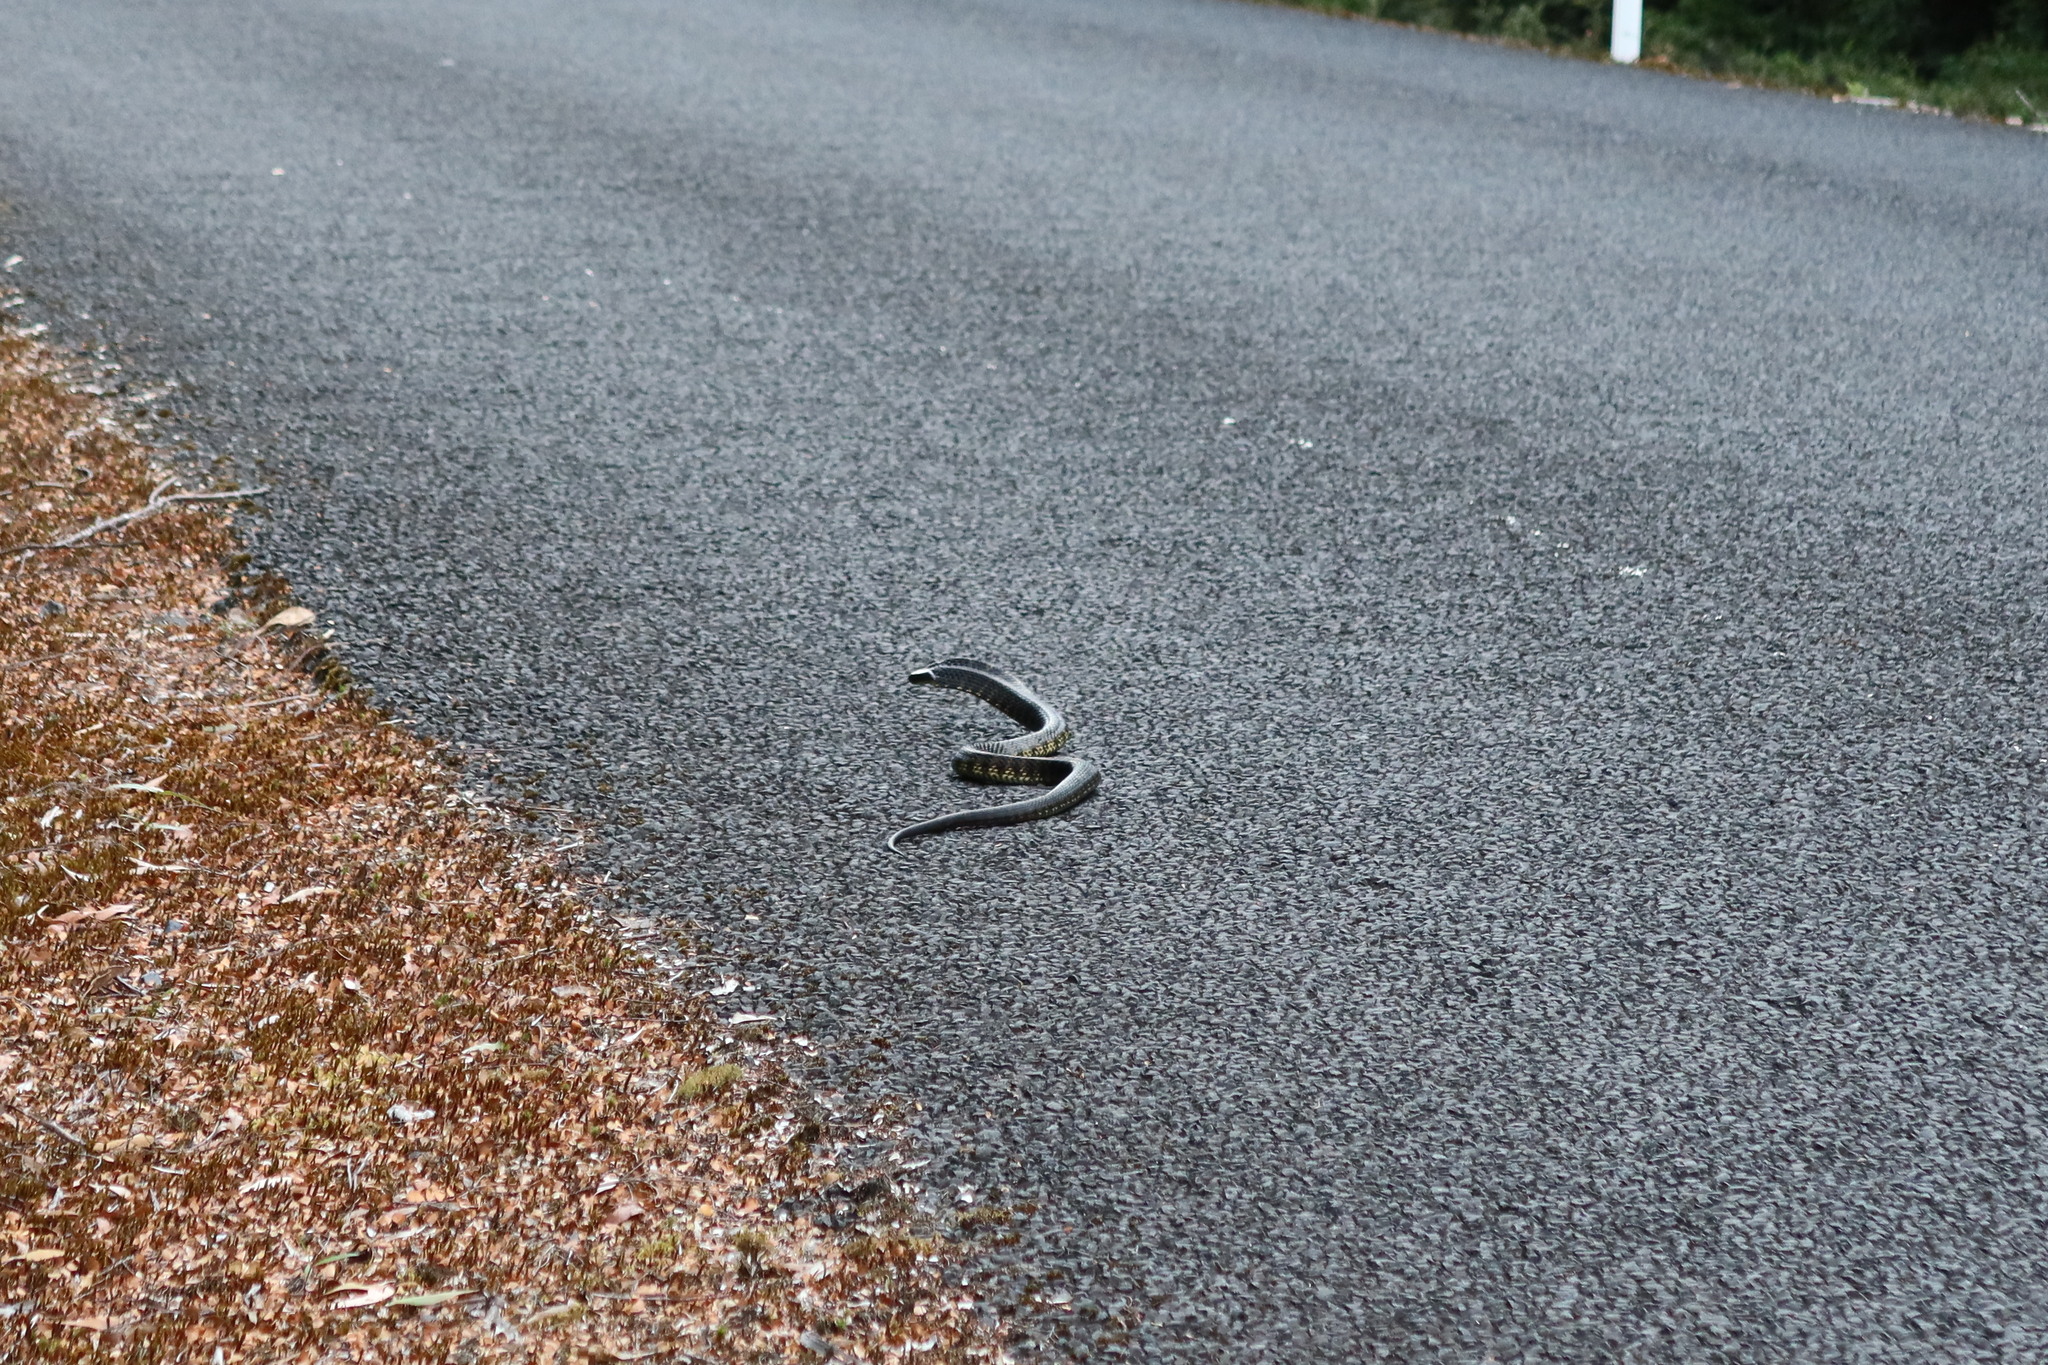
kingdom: Animalia
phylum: Chordata
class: Squamata
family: Elapidae
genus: Notechis
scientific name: Notechis scutatus
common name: Mainland tiger snake
